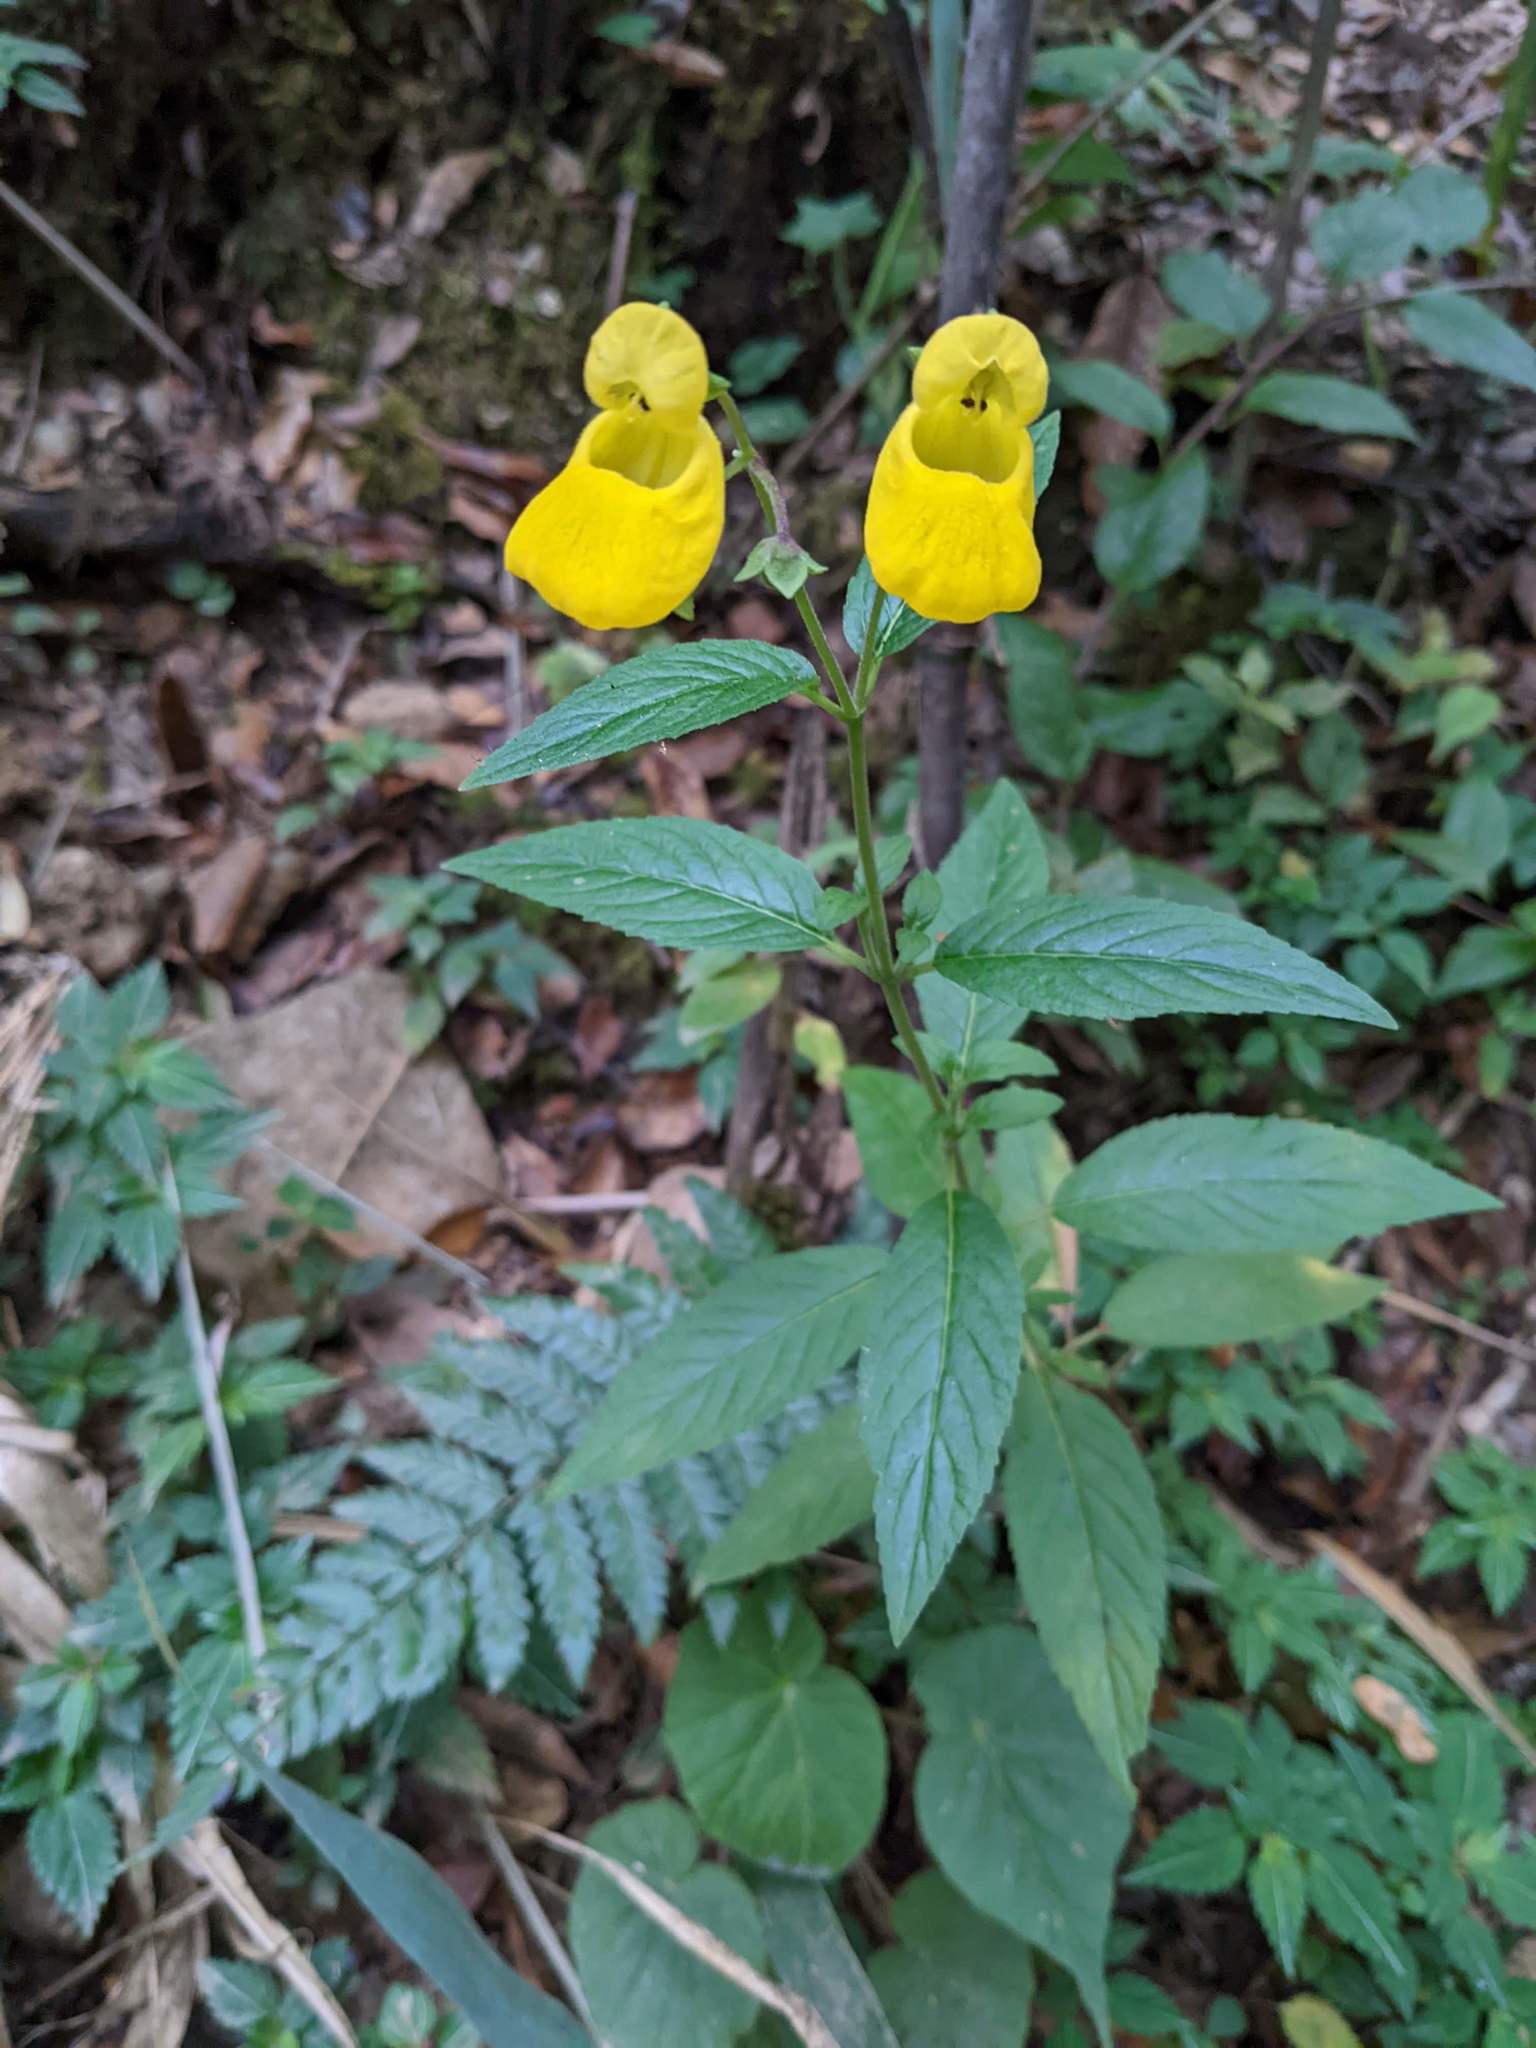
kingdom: Plantae
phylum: Tracheophyta
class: Magnoliopsida
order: Lamiales
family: Calceolariaceae
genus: Calceolaria
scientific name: Calceolaria irazuensis
